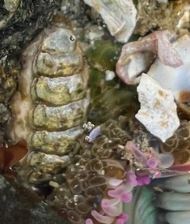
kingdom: Animalia
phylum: Mollusca
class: Polyplacophora
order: Chitonida
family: Mopaliidae
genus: Mopalia
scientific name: Mopalia hindsii
